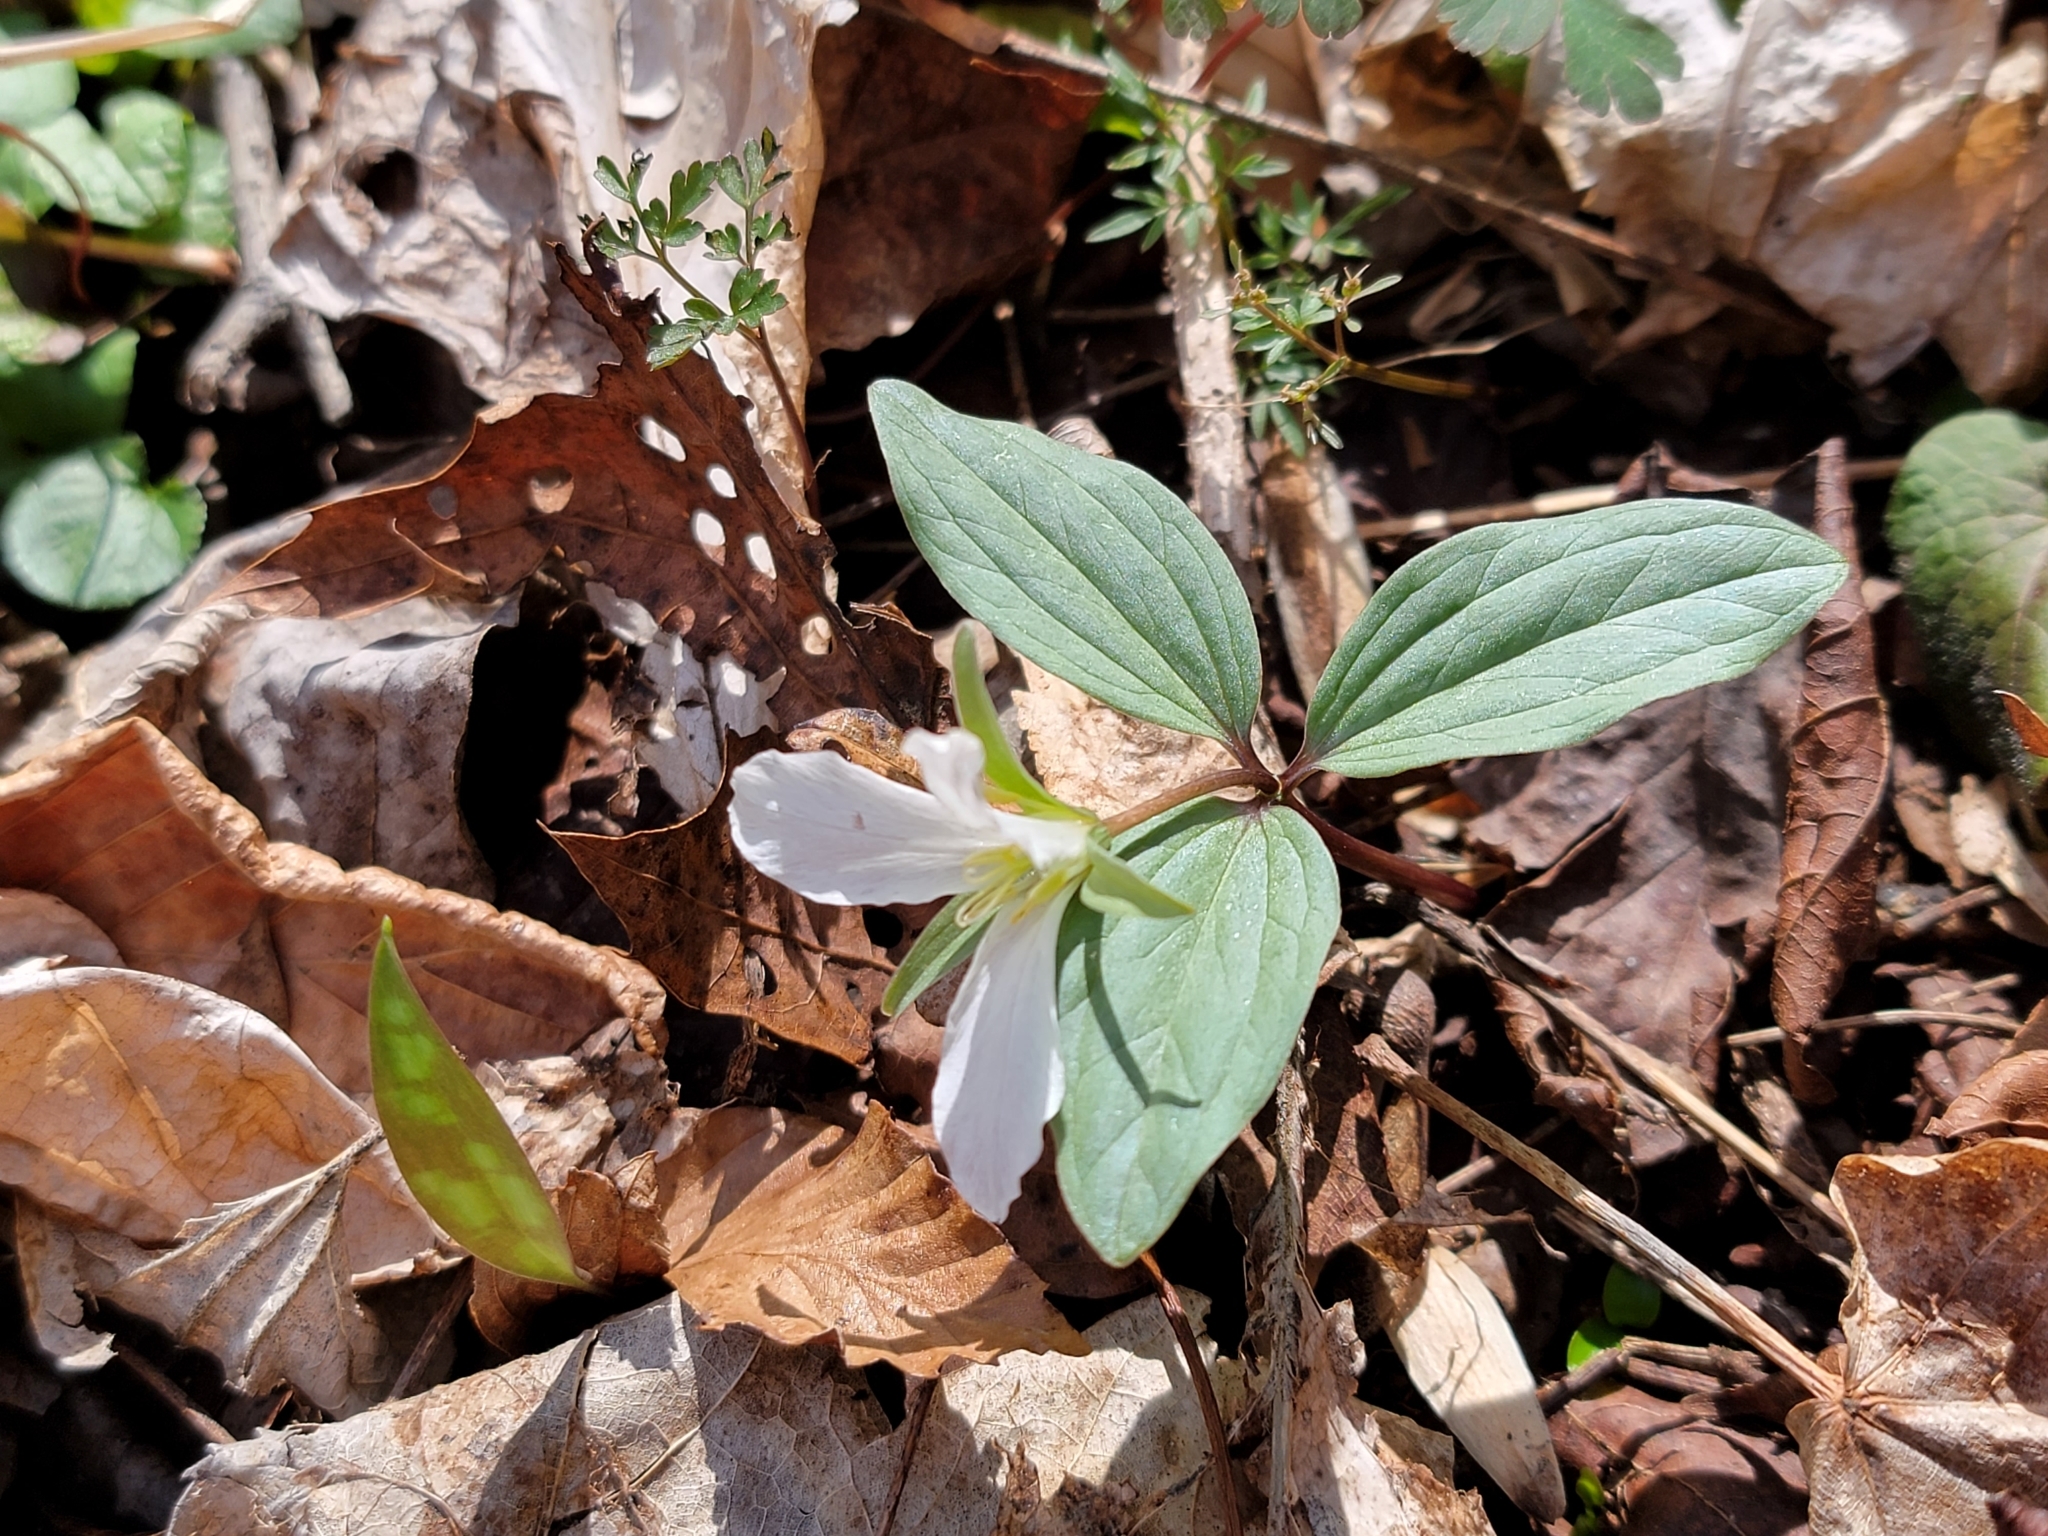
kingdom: Plantae
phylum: Tracheophyta
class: Liliopsida
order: Liliales
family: Melanthiaceae
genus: Trillium
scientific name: Trillium nivale
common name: Dwarf white trillium
